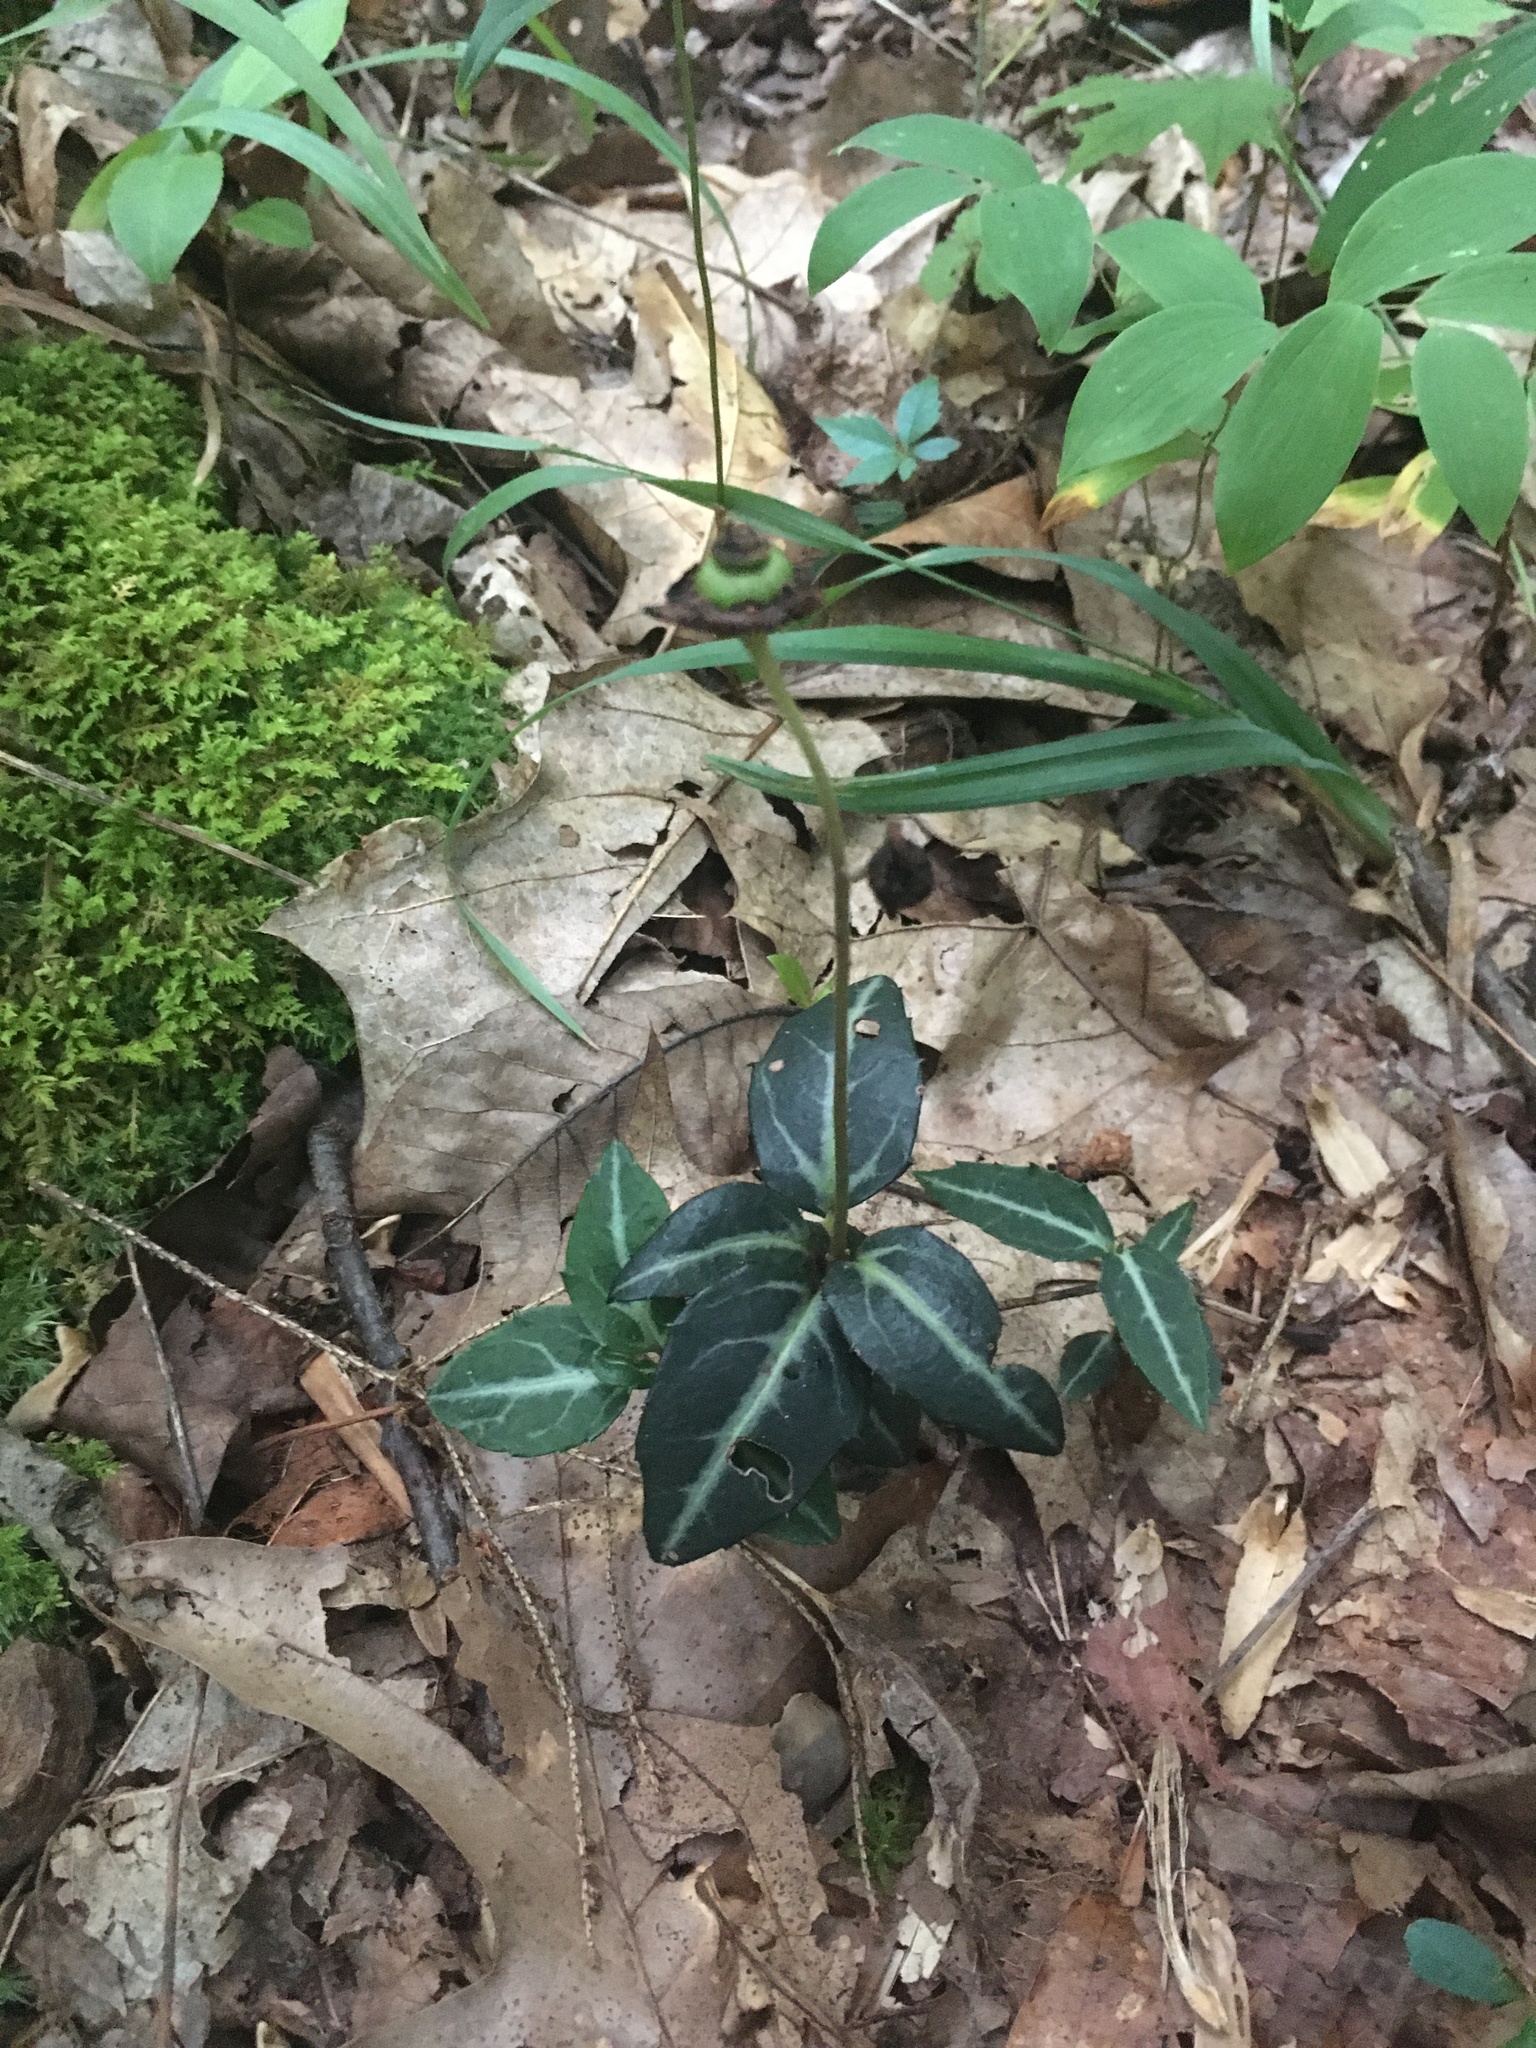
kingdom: Plantae
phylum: Tracheophyta
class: Magnoliopsida
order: Ericales
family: Ericaceae
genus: Chimaphila
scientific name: Chimaphila maculata
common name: Spotted pipsissewa
